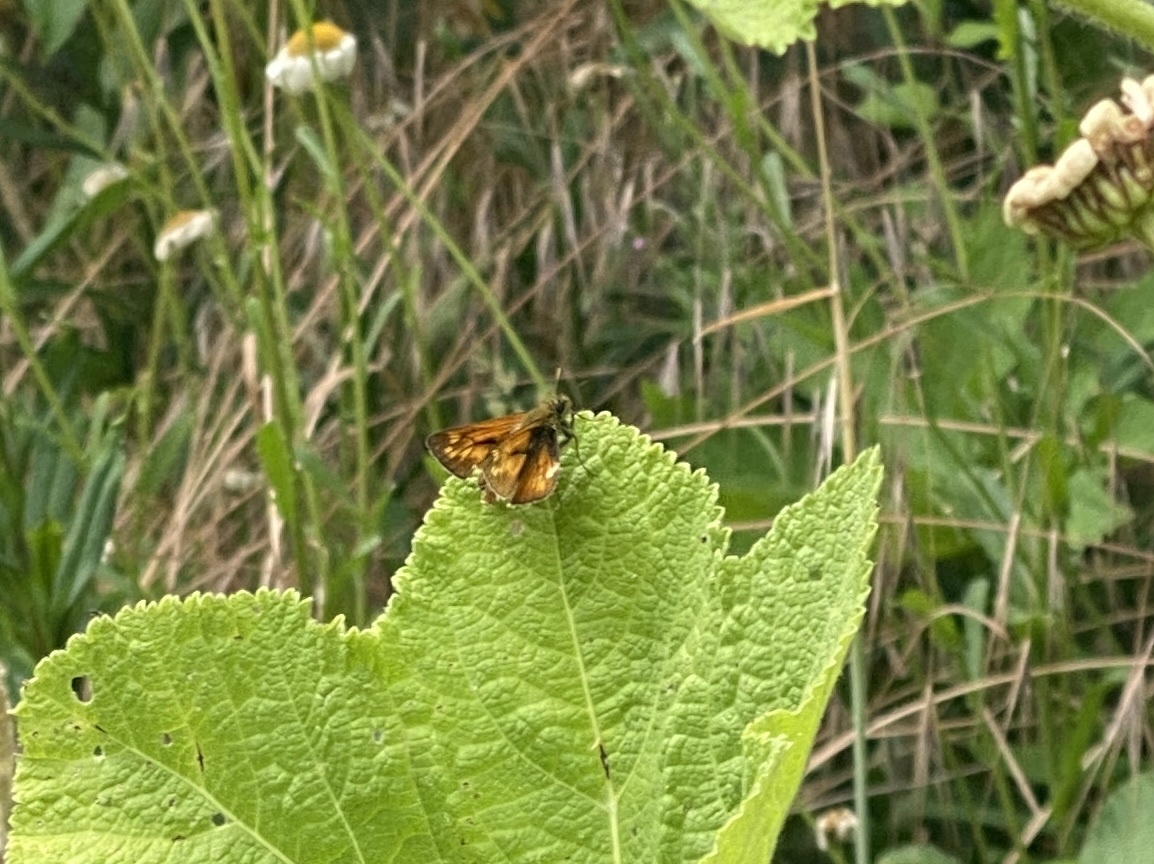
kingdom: Animalia
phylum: Arthropoda
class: Insecta
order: Lepidoptera
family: Hesperiidae
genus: Ochlodes
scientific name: Ochlodes venata
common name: Large skipper
